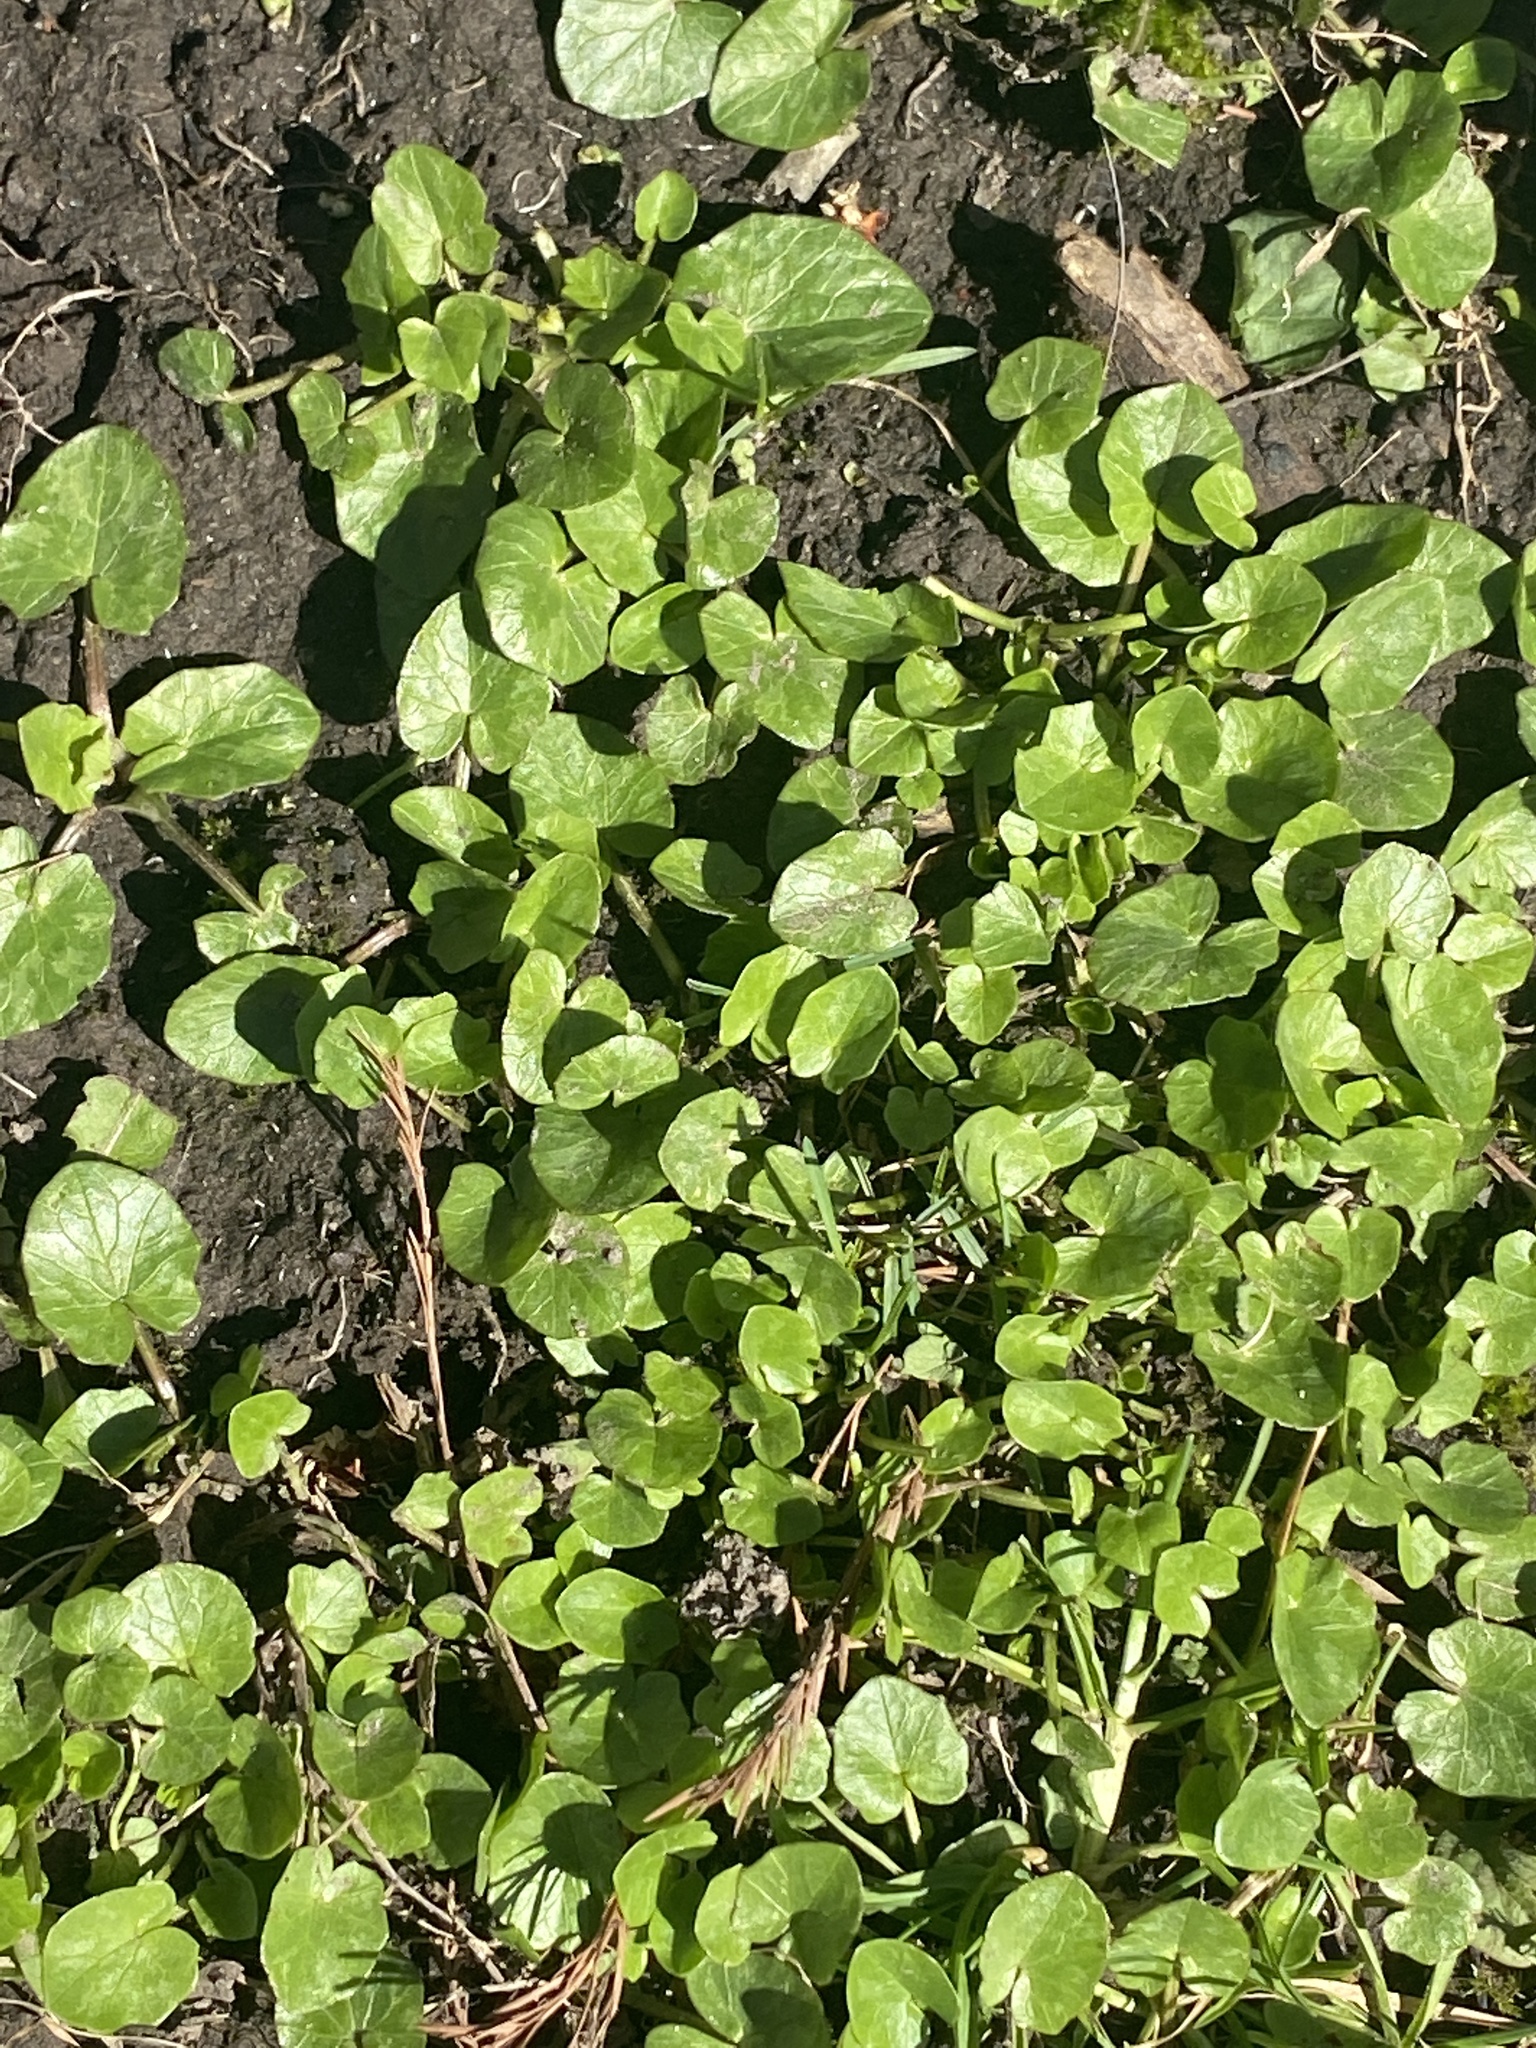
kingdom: Plantae
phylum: Tracheophyta
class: Magnoliopsida
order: Ranunculales
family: Ranunculaceae
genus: Ficaria
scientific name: Ficaria verna
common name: Lesser celandine
